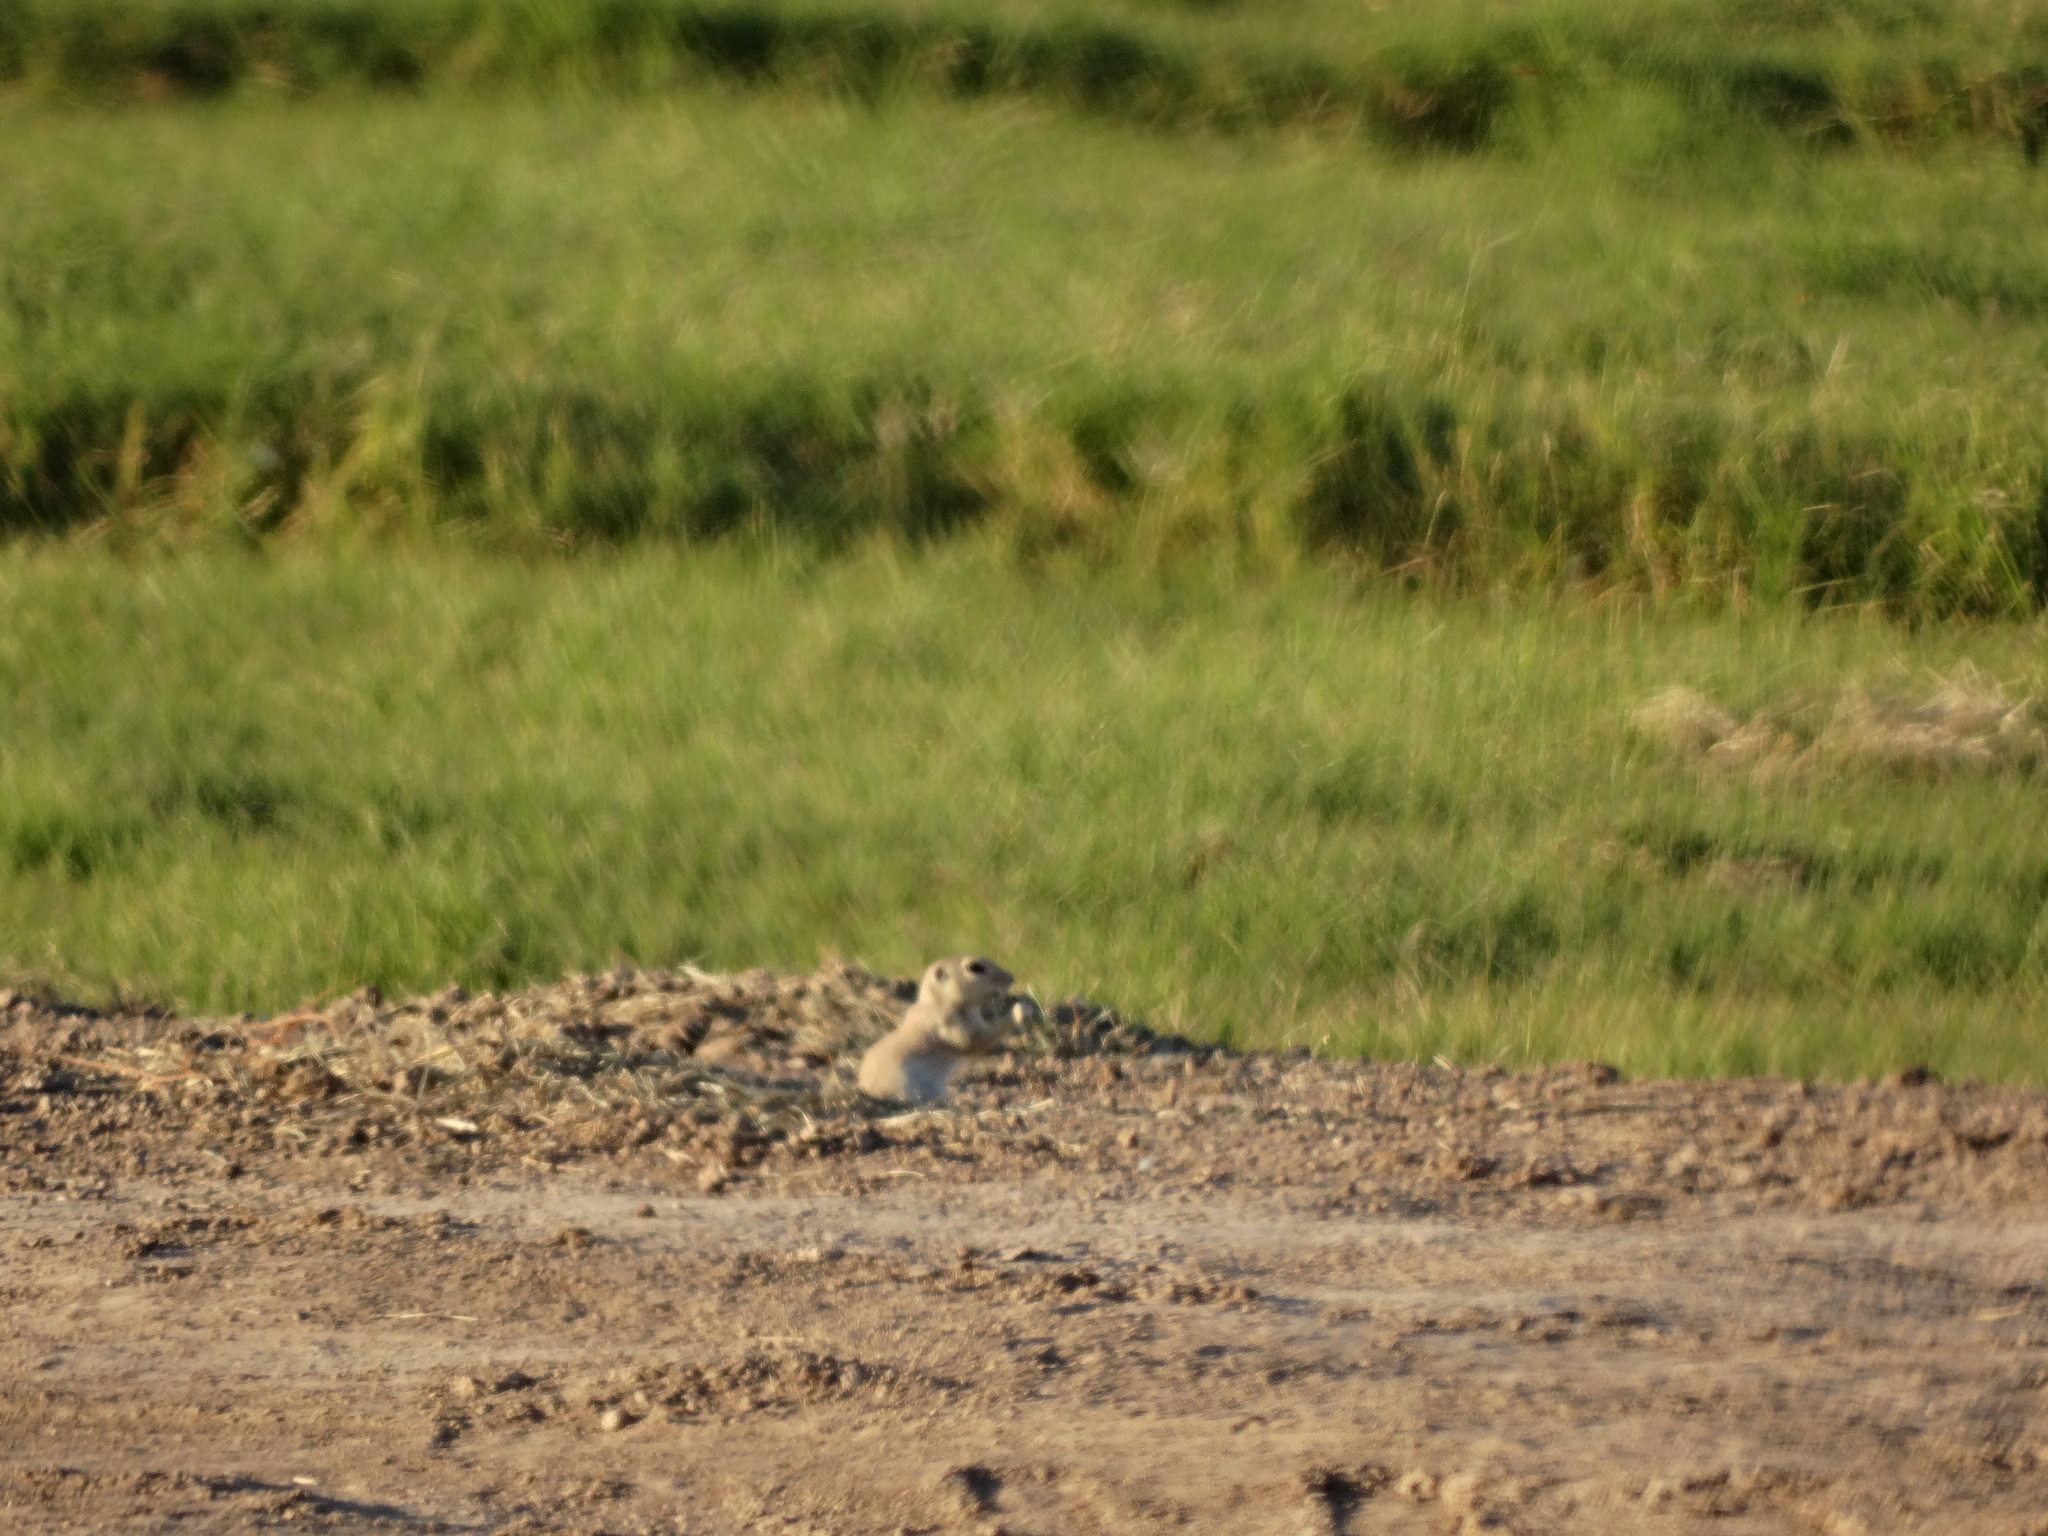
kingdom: Animalia
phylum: Chordata
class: Mammalia
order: Rodentia
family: Sciuridae
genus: Xerospermophilus
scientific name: Xerospermophilus tereticaudus
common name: Round-tailed ground squirrel
